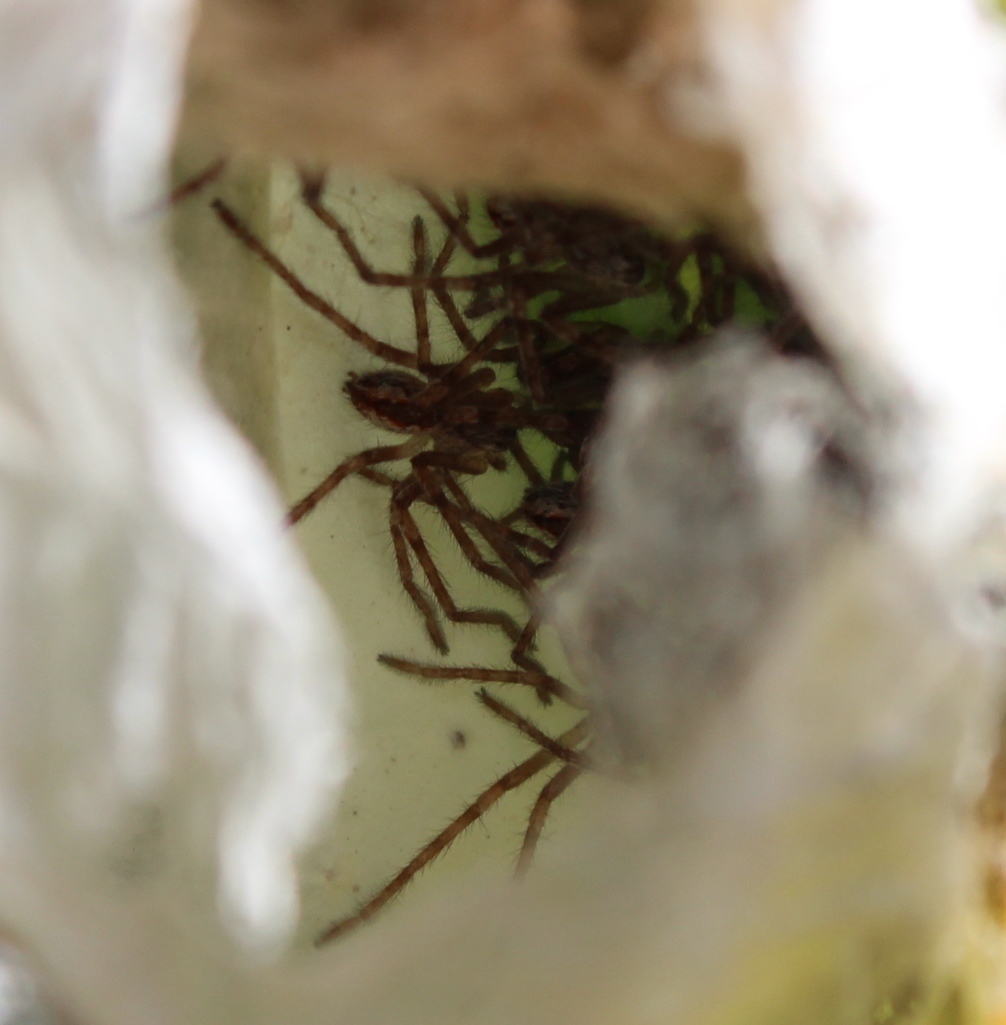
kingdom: Animalia
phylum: Arthropoda
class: Arachnida
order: Araneae
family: Sparassidae
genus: Palystes
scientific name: Palystes kreutzmanni
